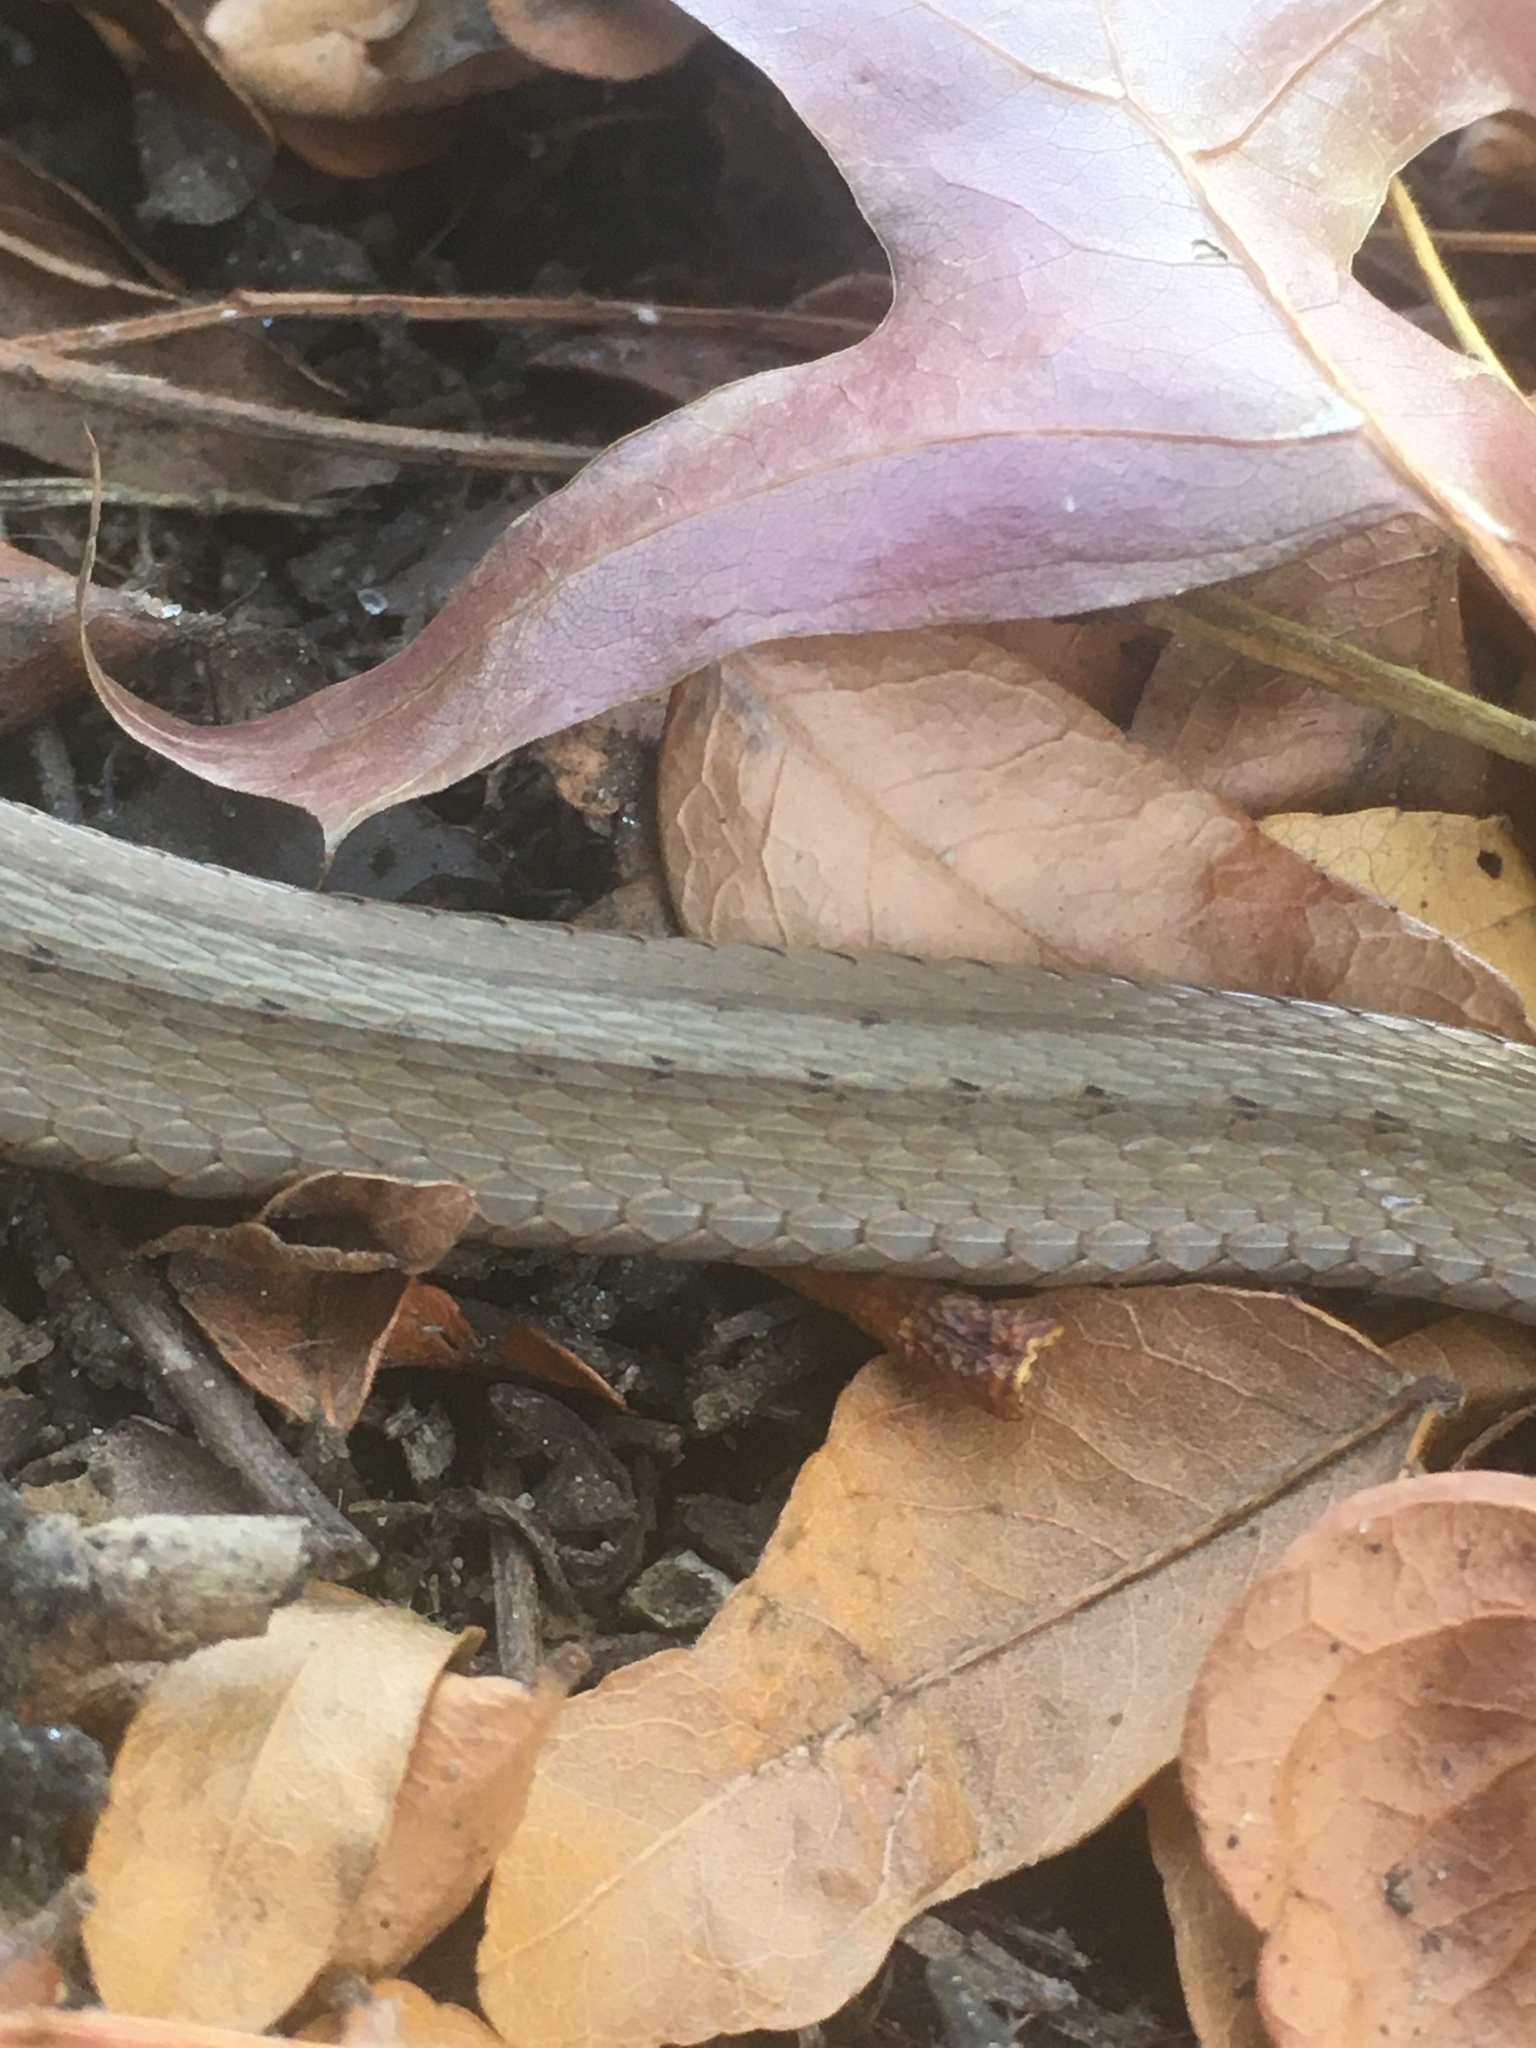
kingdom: Animalia
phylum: Chordata
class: Squamata
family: Colubridae
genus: Storeria
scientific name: Storeria dekayi
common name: (dekay’s) brown snake
